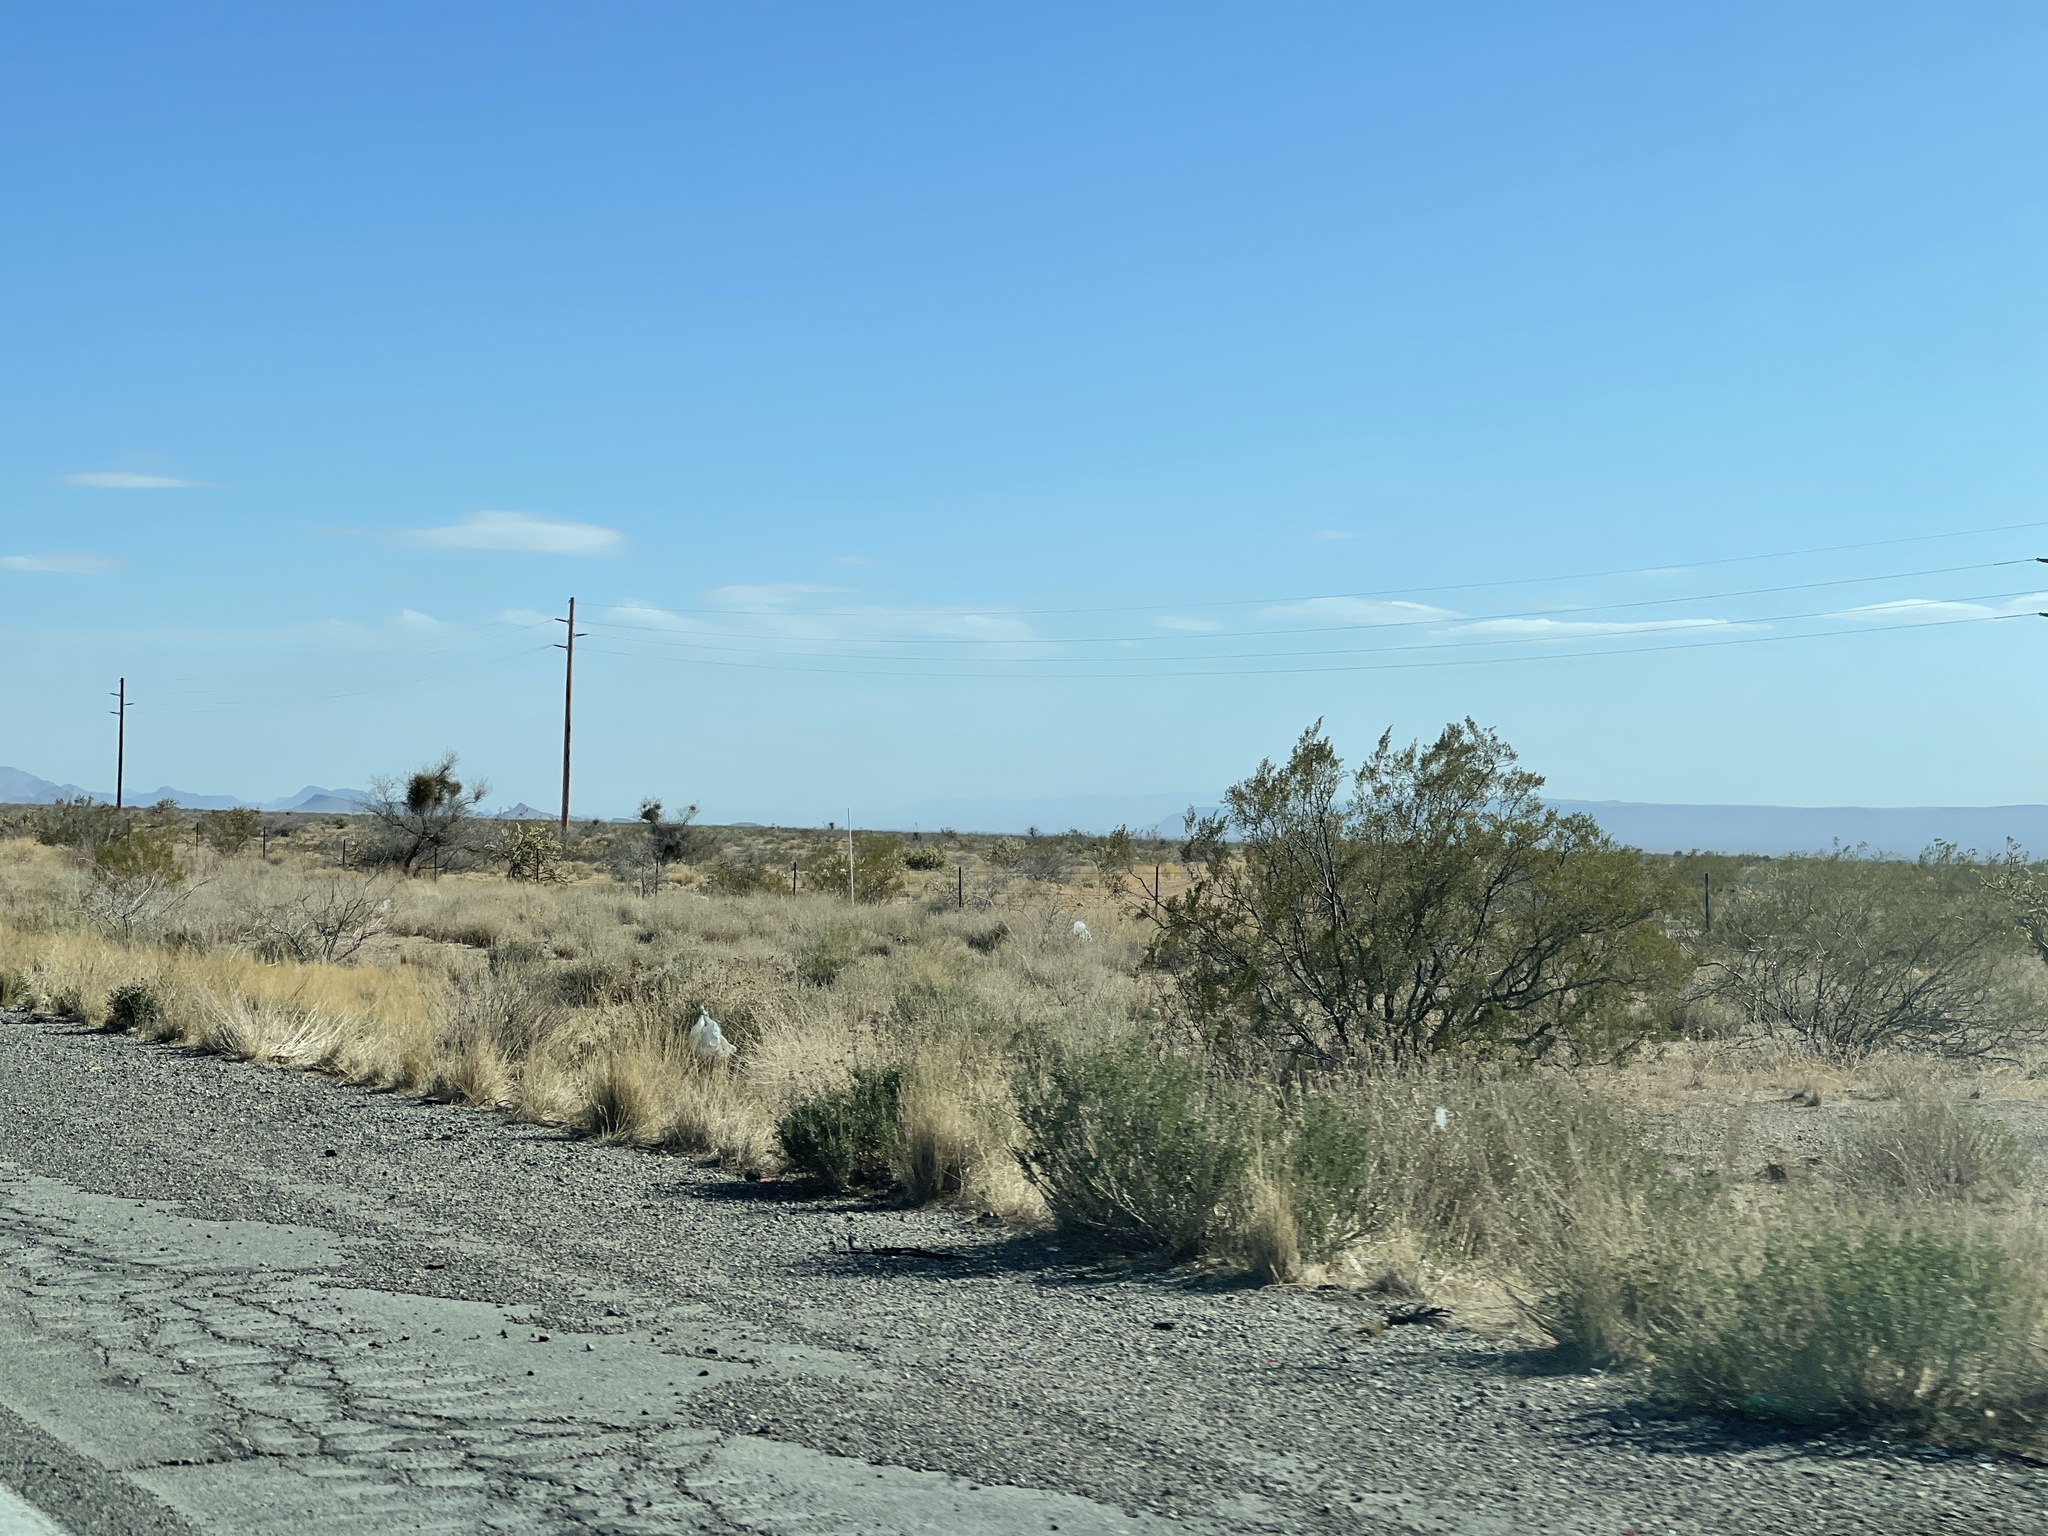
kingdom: Plantae
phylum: Tracheophyta
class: Magnoliopsida
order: Zygophyllales
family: Zygophyllaceae
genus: Larrea
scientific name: Larrea tridentata
